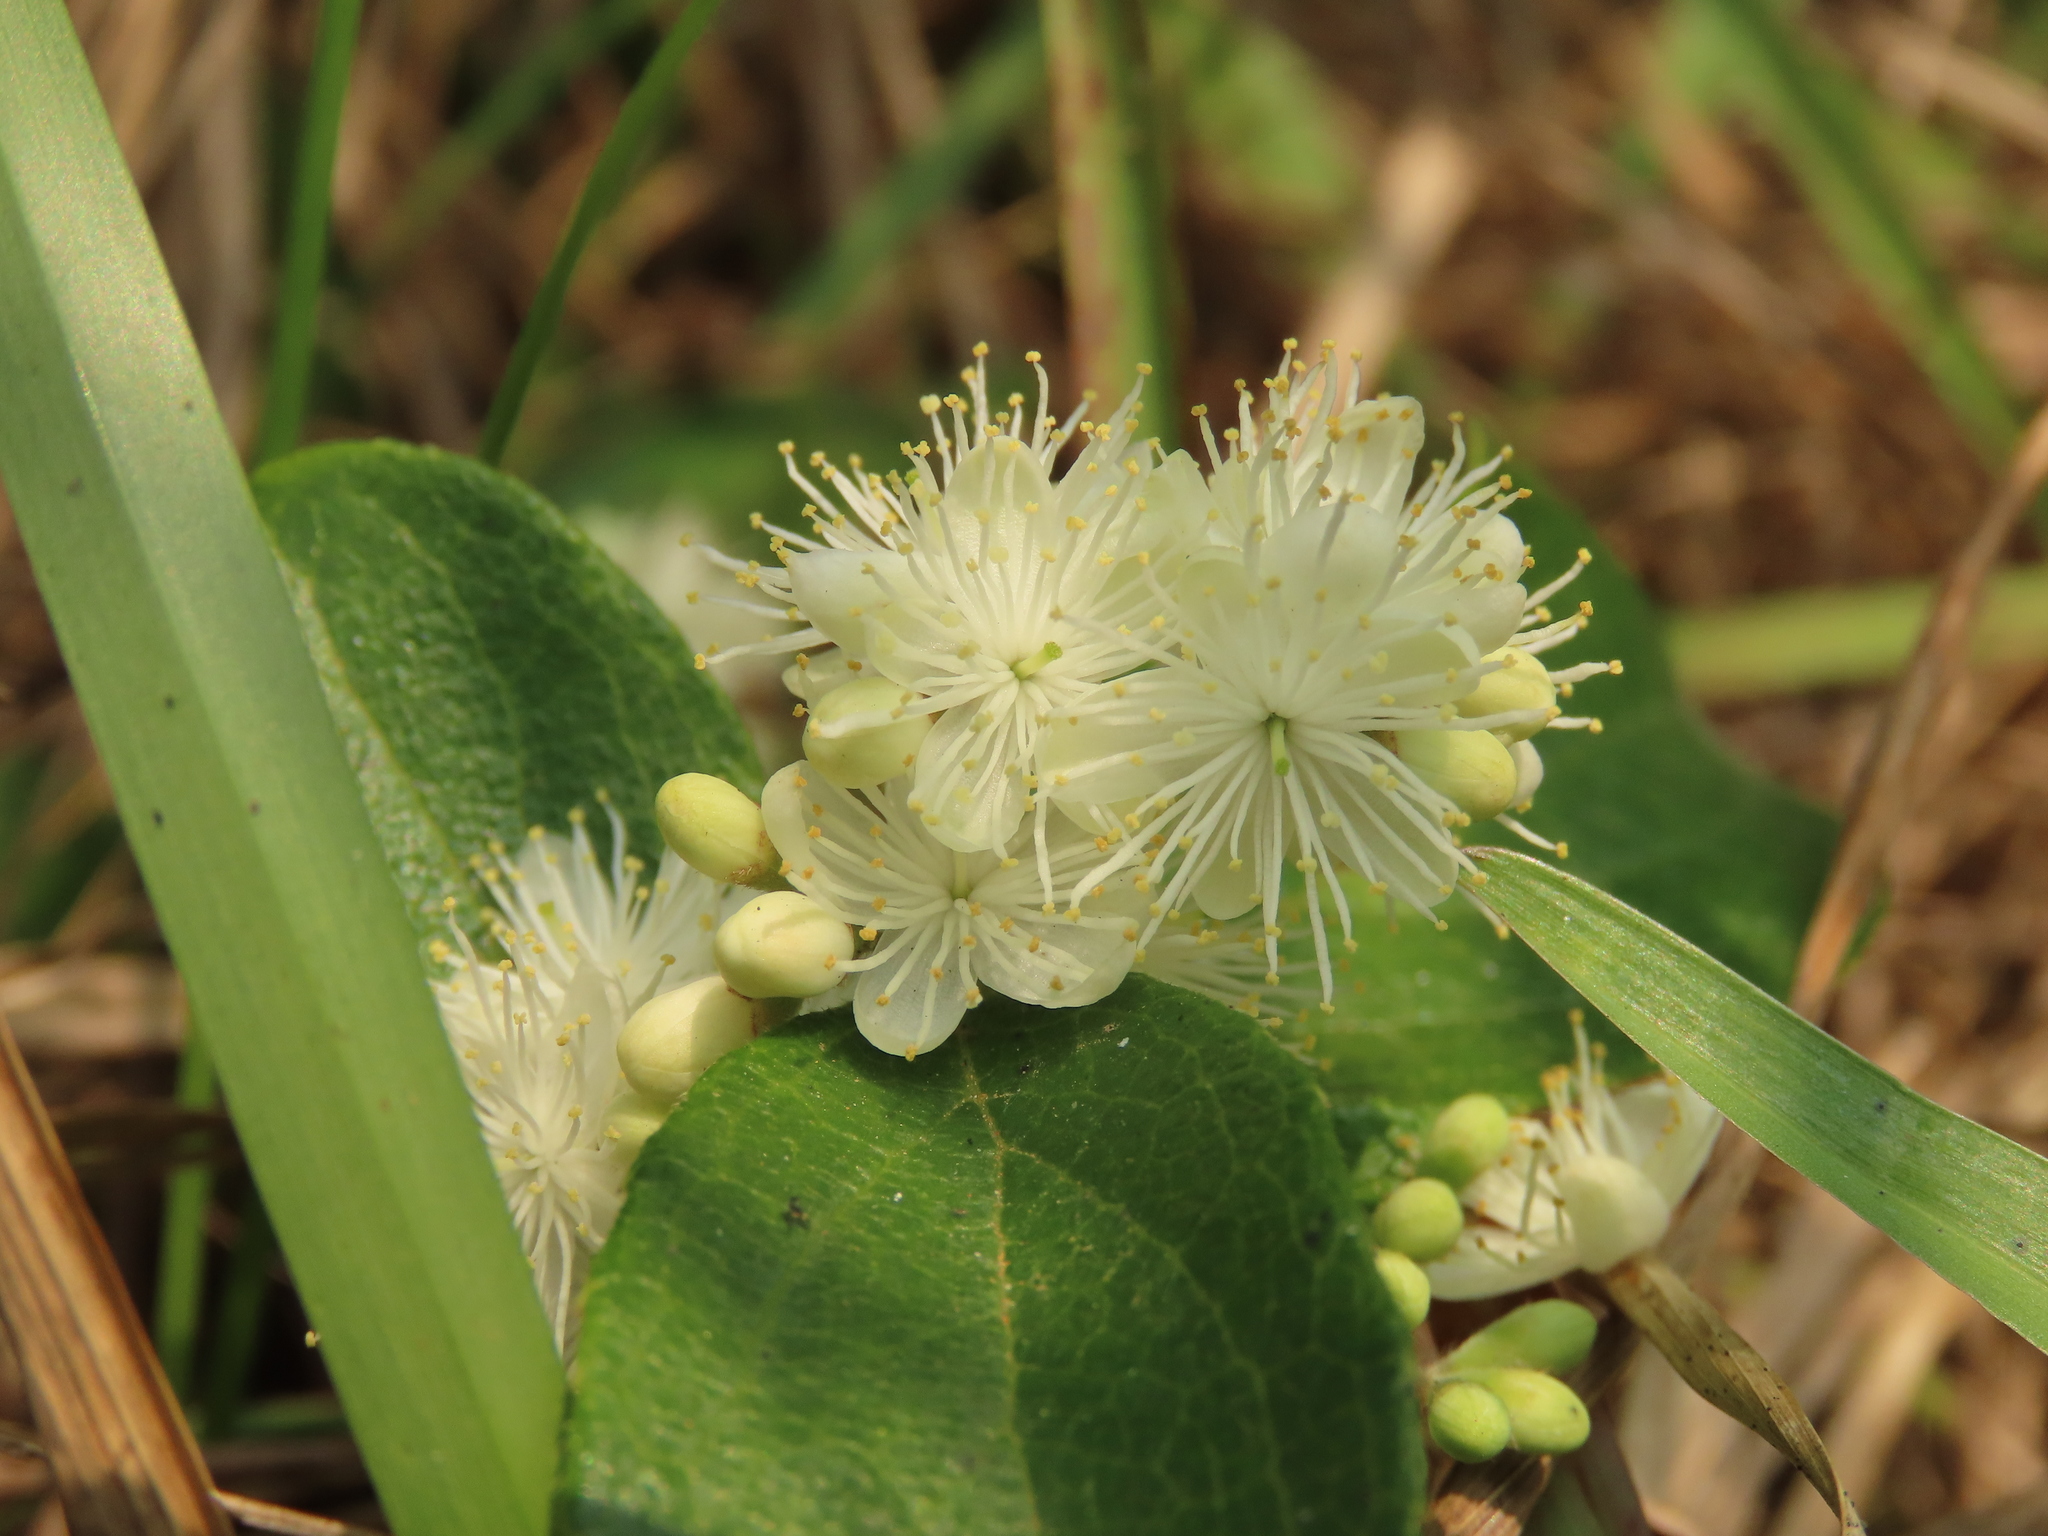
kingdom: Plantae
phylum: Tracheophyta
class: Magnoliopsida
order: Ericales
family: Symplocaceae
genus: Symplocos
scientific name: Symplocos paniculata
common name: Sapphire-berry
